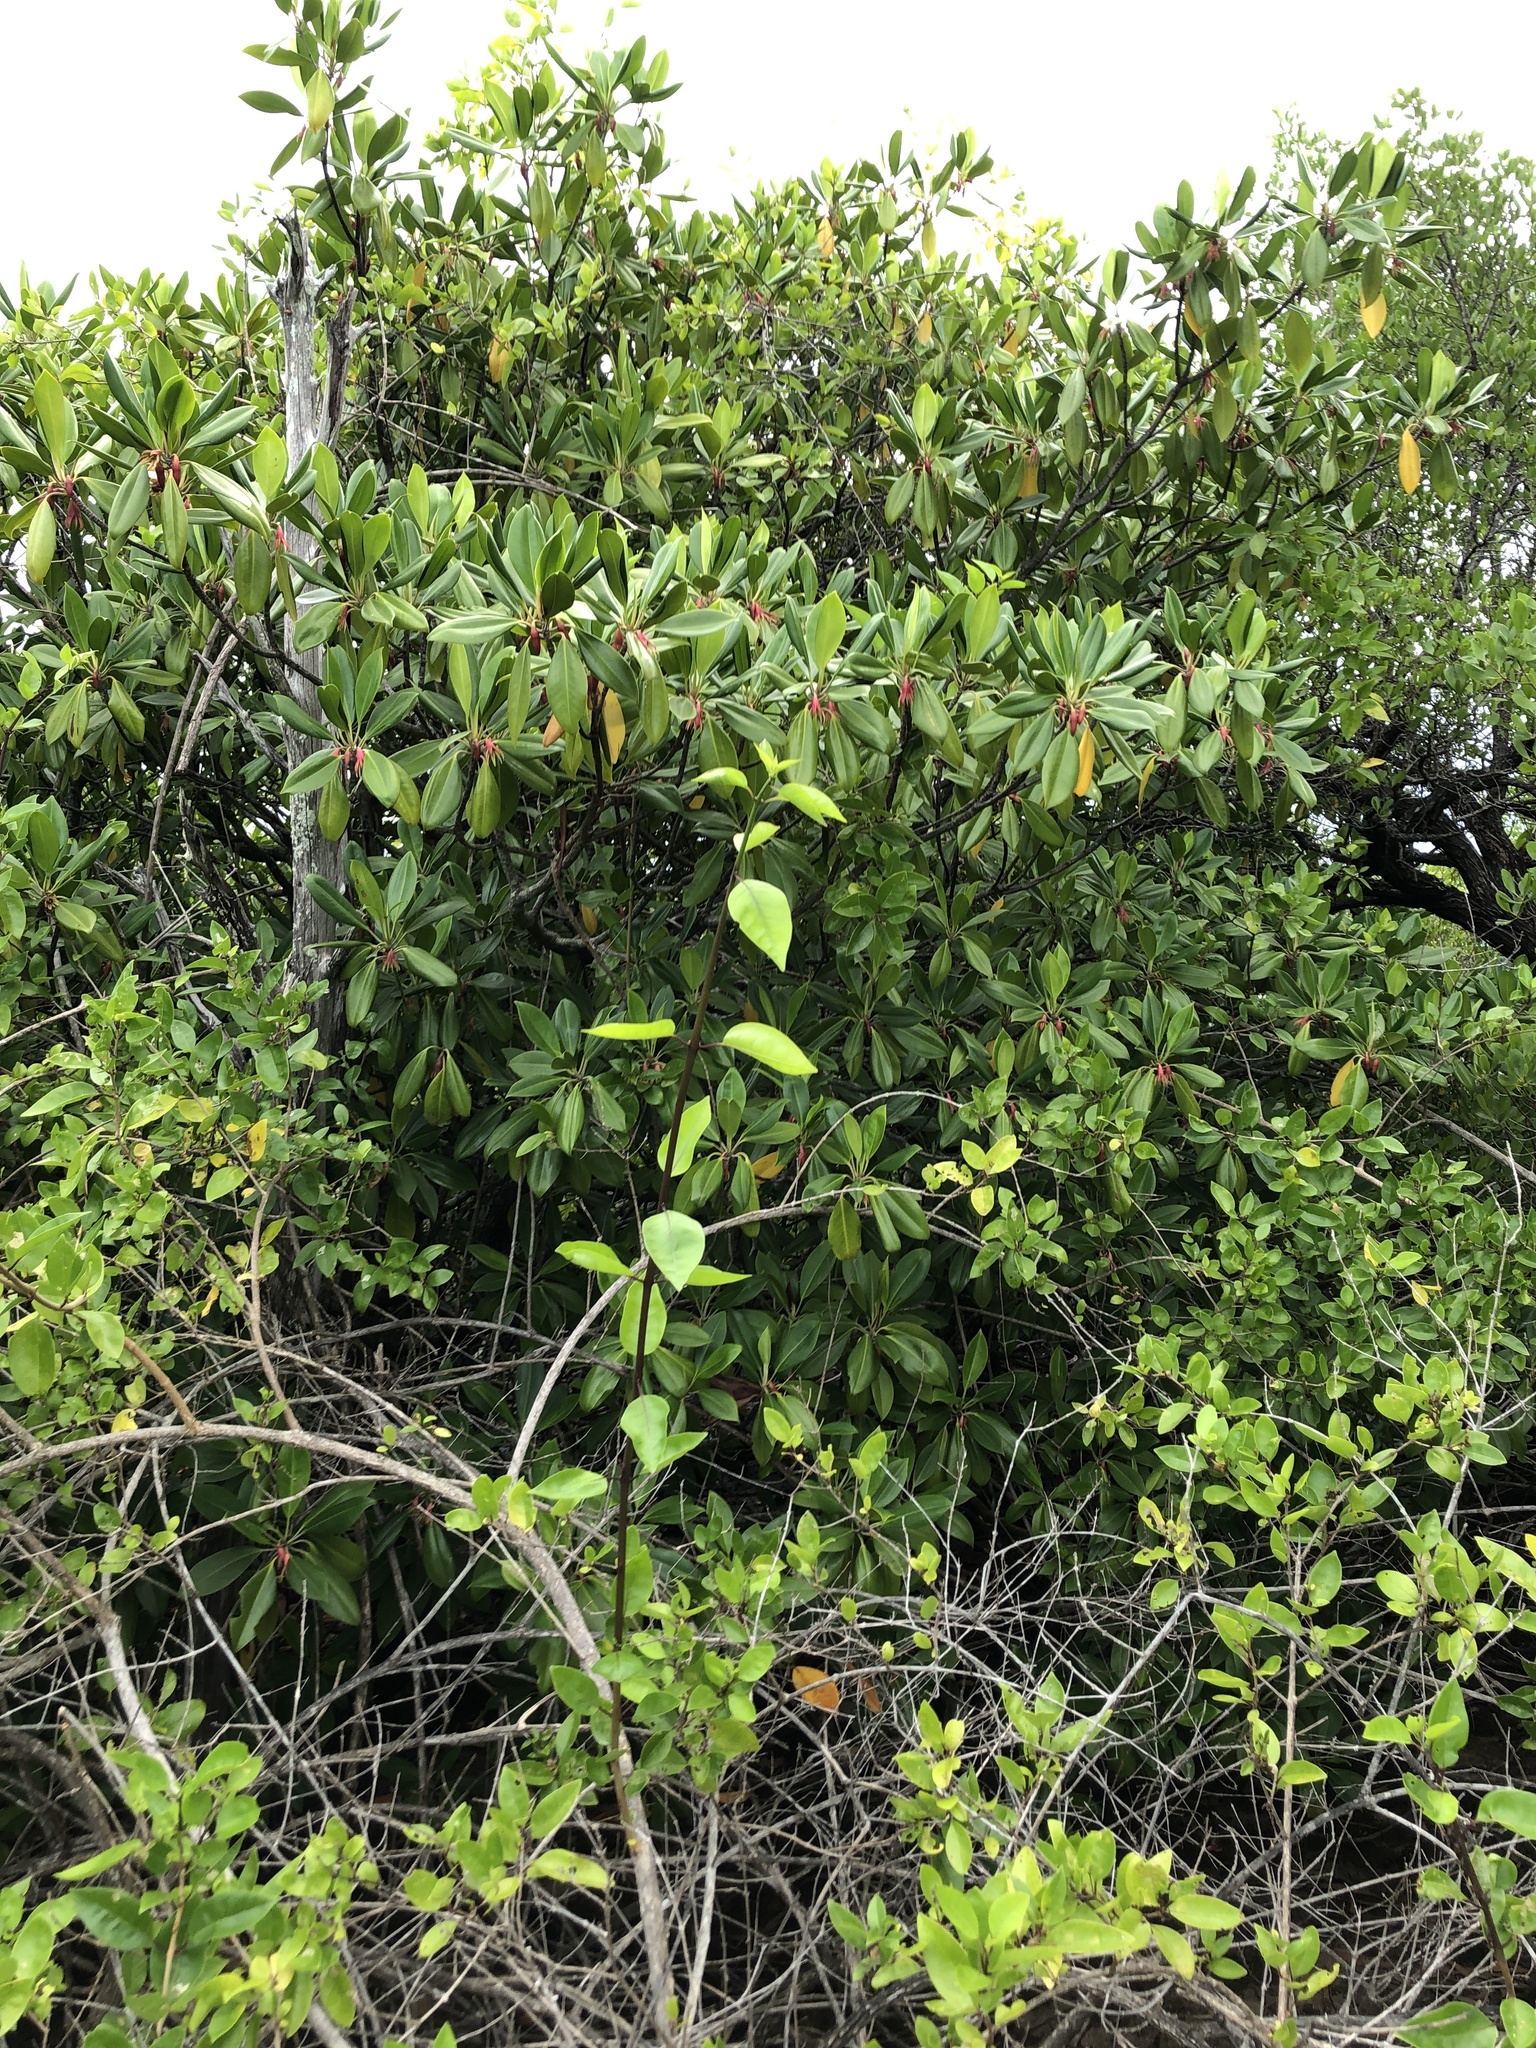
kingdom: Plantae
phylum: Tracheophyta
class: Magnoliopsida
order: Malpighiales
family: Rhizophoraceae
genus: Bruguiera
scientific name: Bruguiera gymnorhiza
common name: Oriental mangrove
